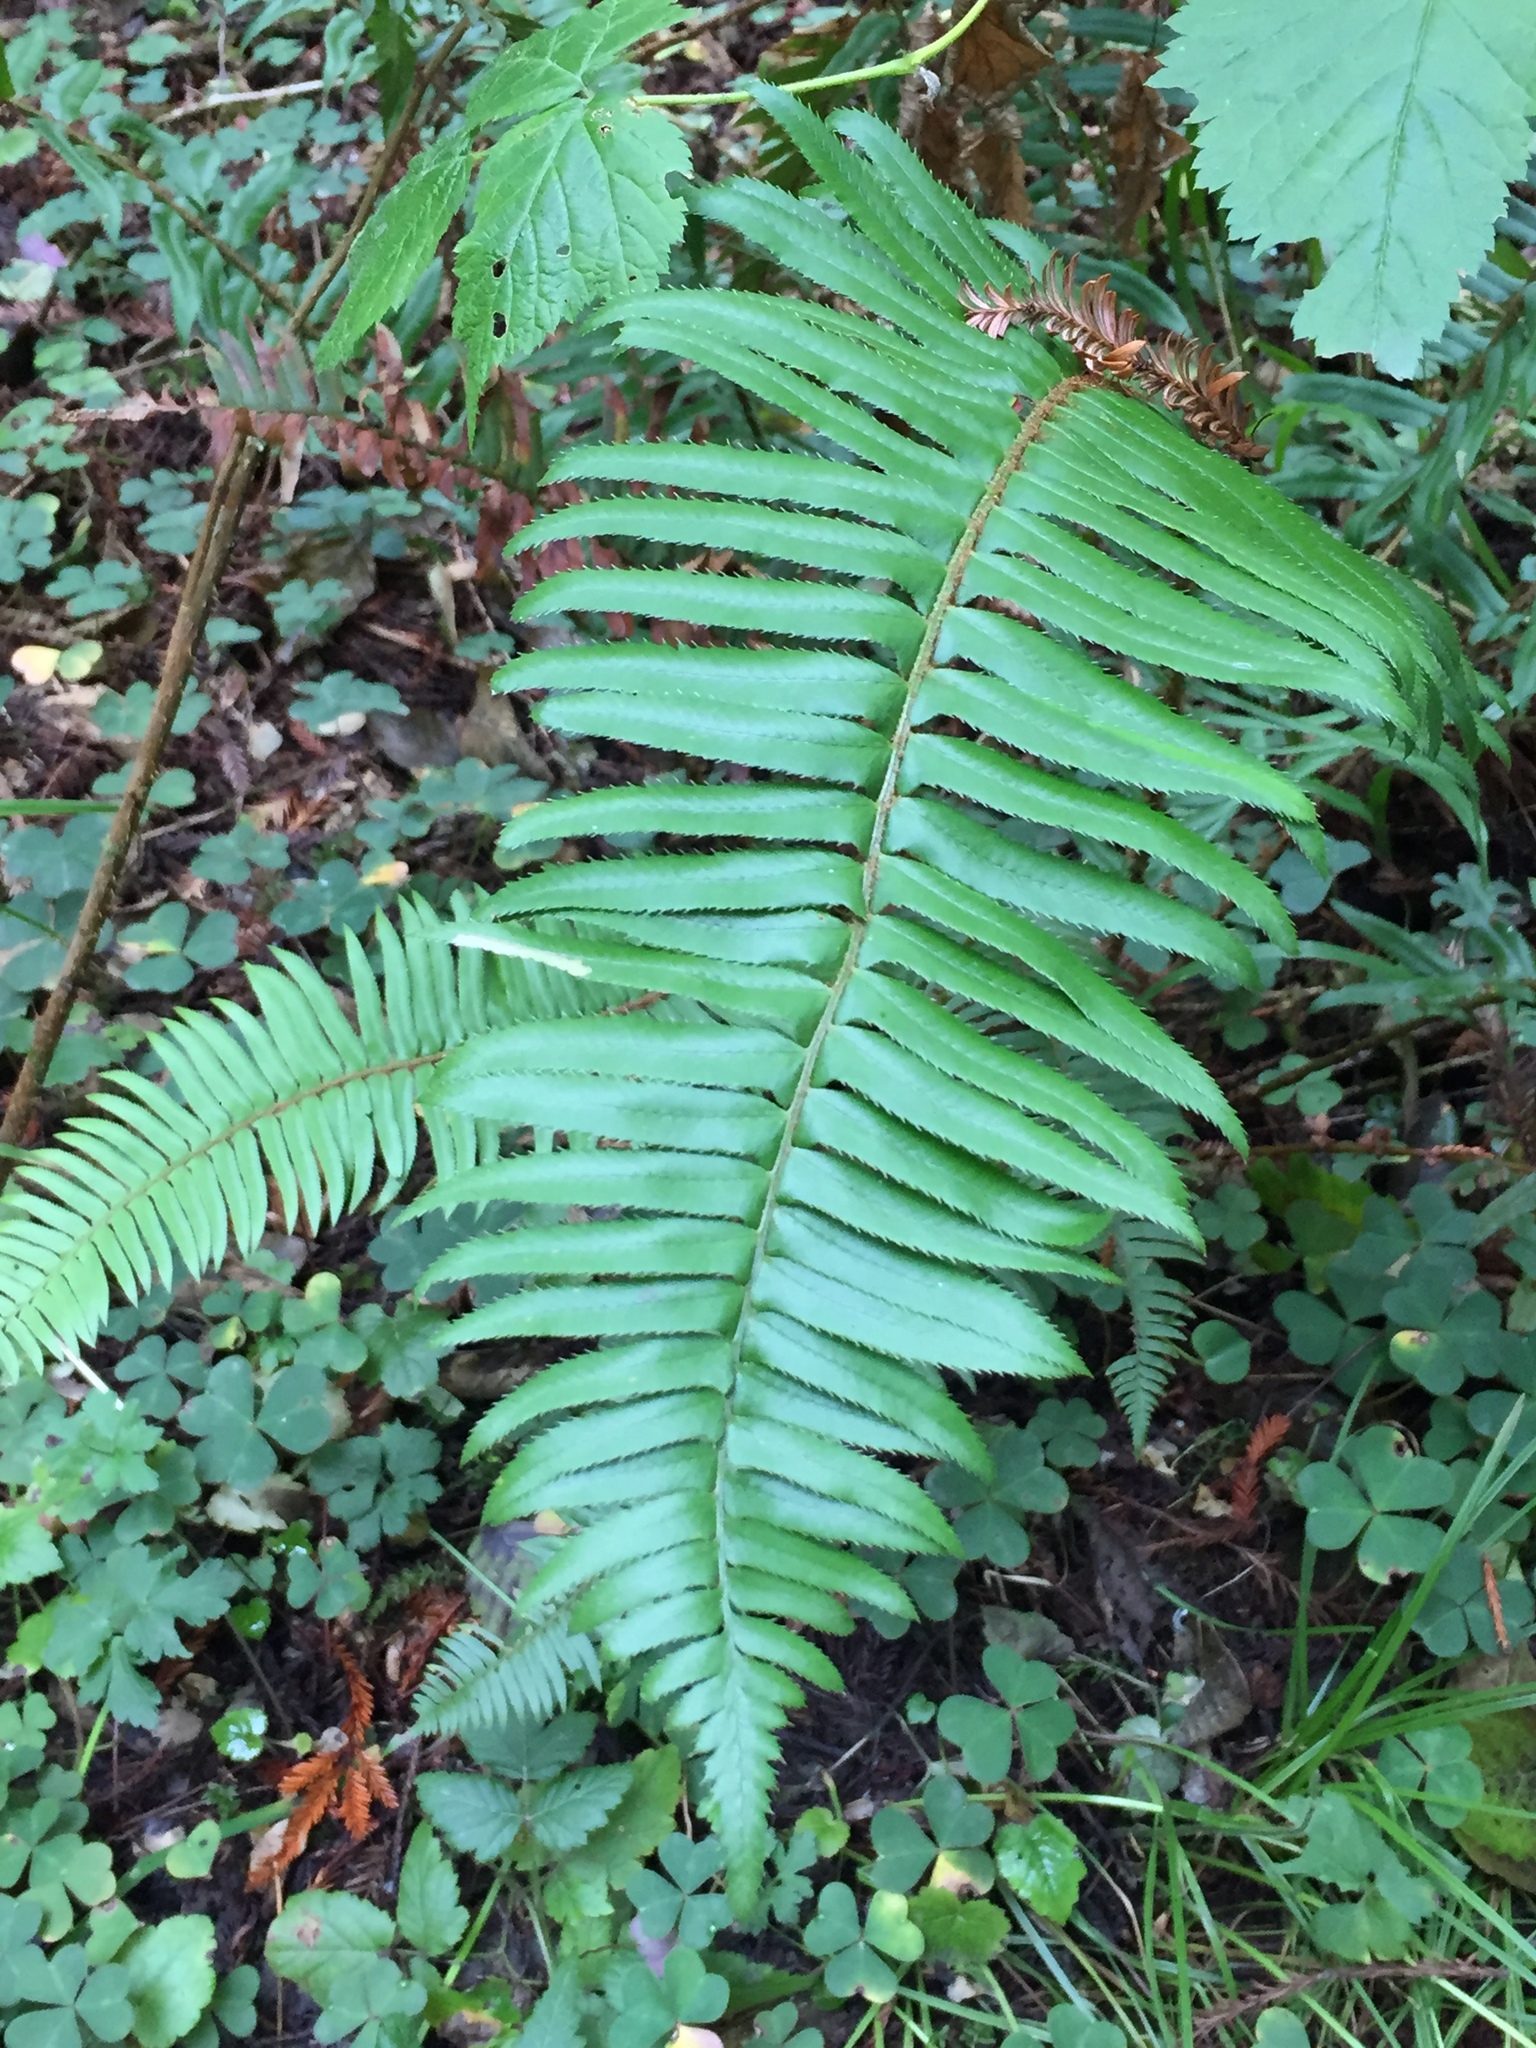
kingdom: Plantae
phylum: Tracheophyta
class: Polypodiopsida
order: Polypodiales
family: Dryopteridaceae
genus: Polystichum
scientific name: Polystichum munitum
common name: Western sword-fern
